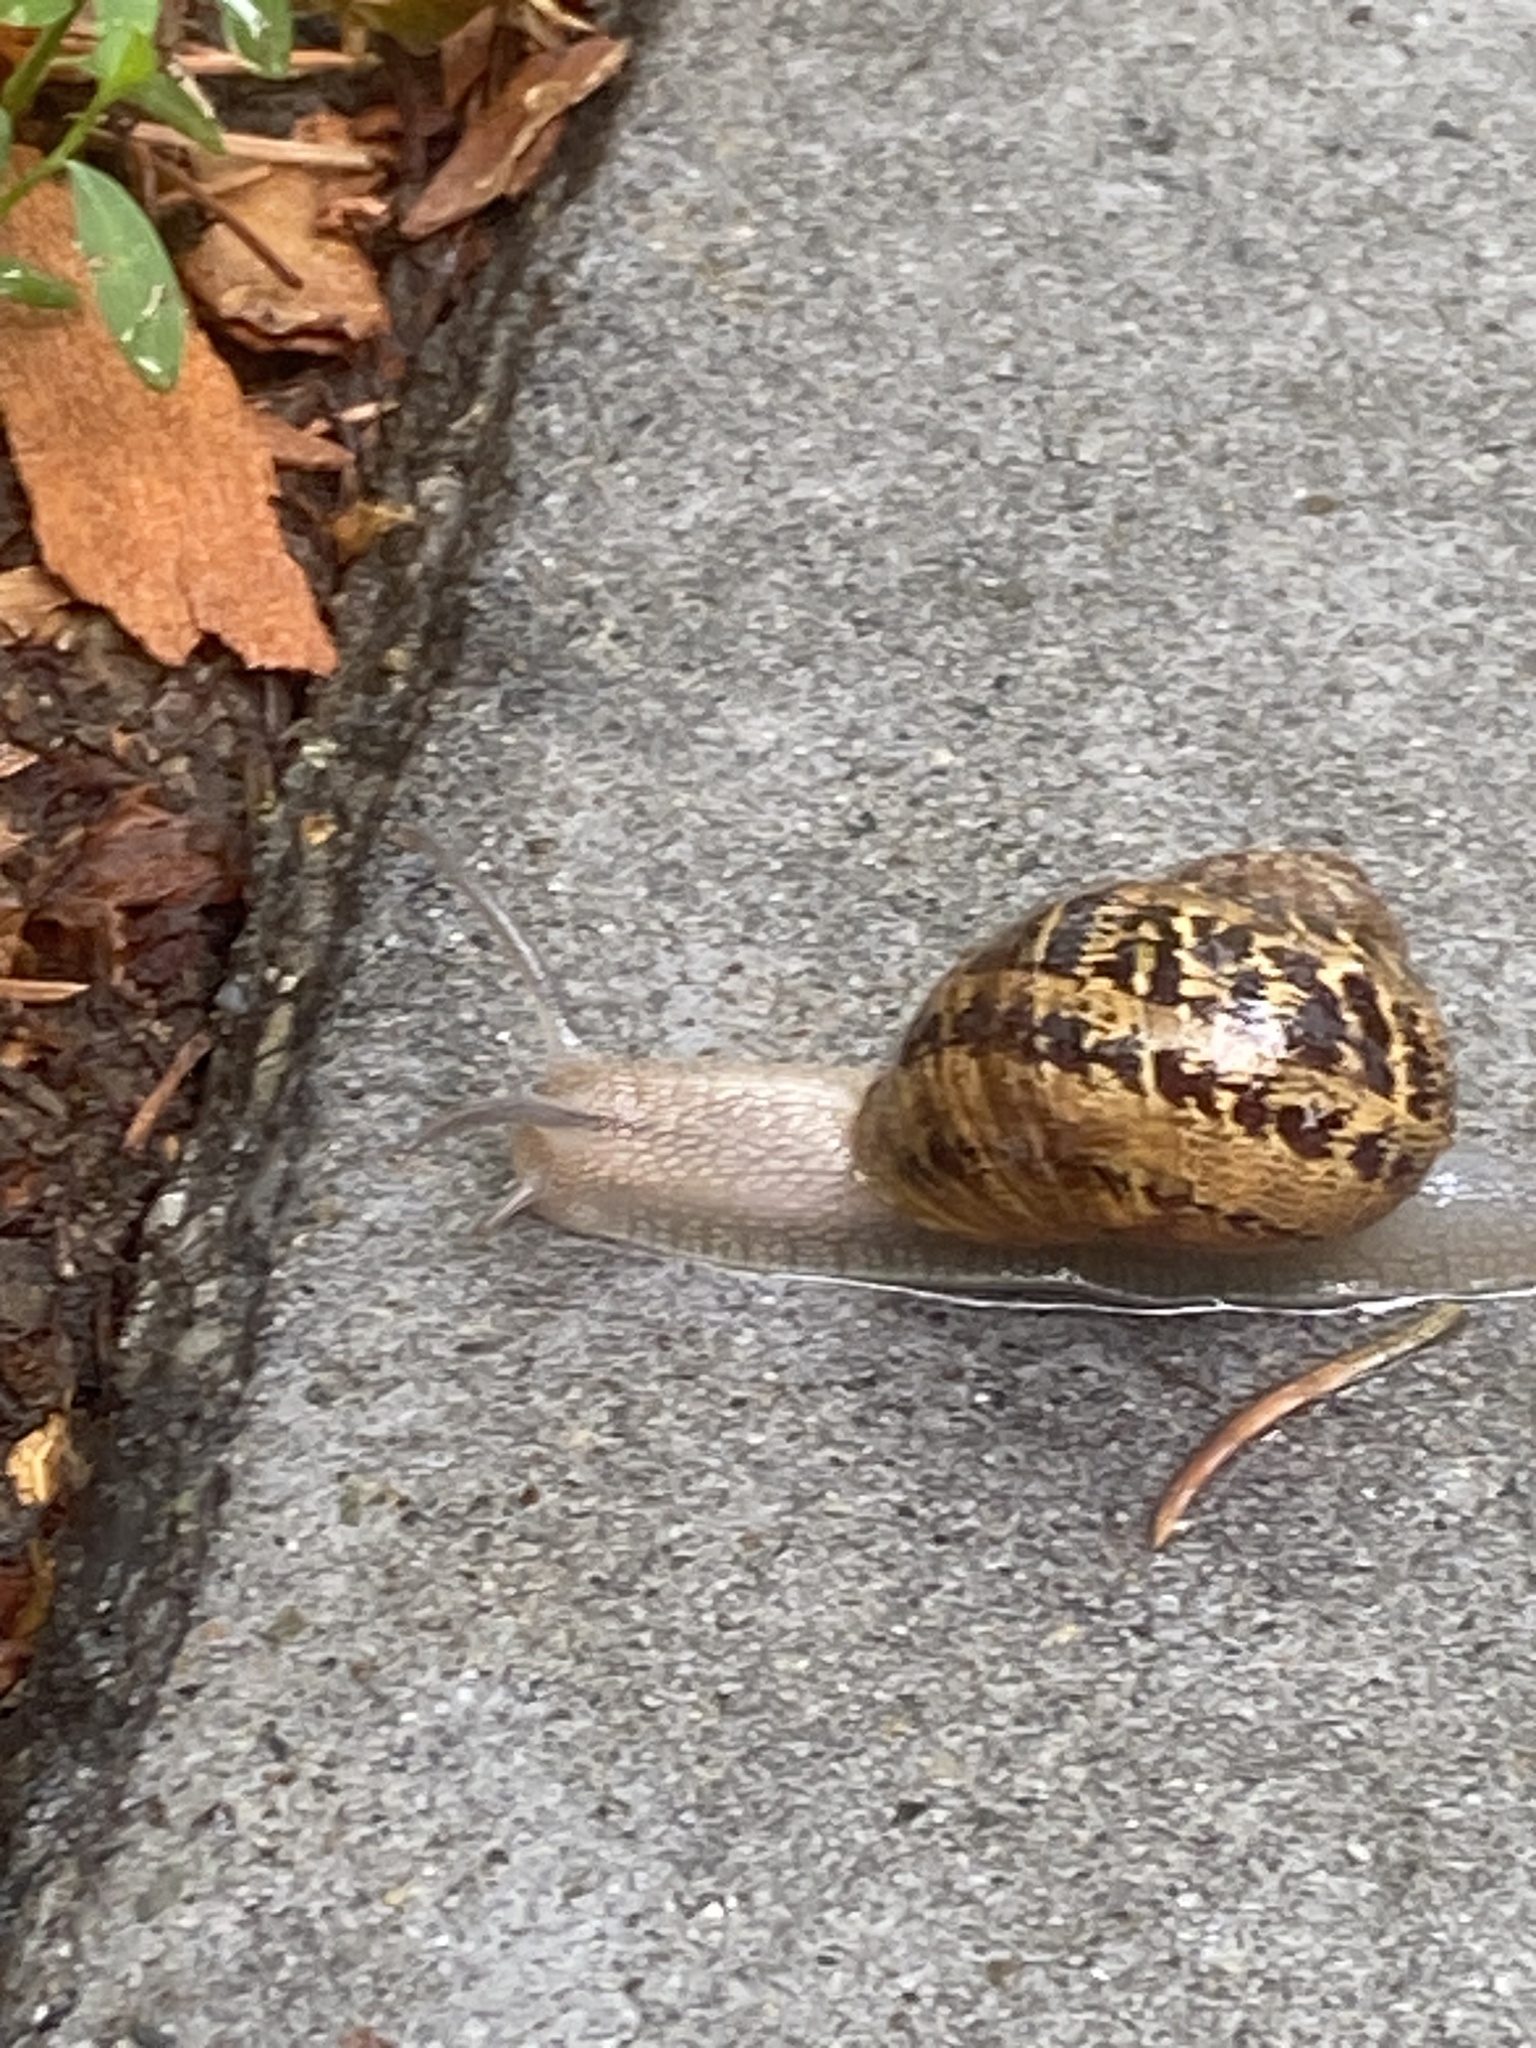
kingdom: Animalia
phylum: Mollusca
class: Gastropoda
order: Stylommatophora
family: Helicidae
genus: Cornu
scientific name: Cornu aspersum
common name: Brown garden snail
